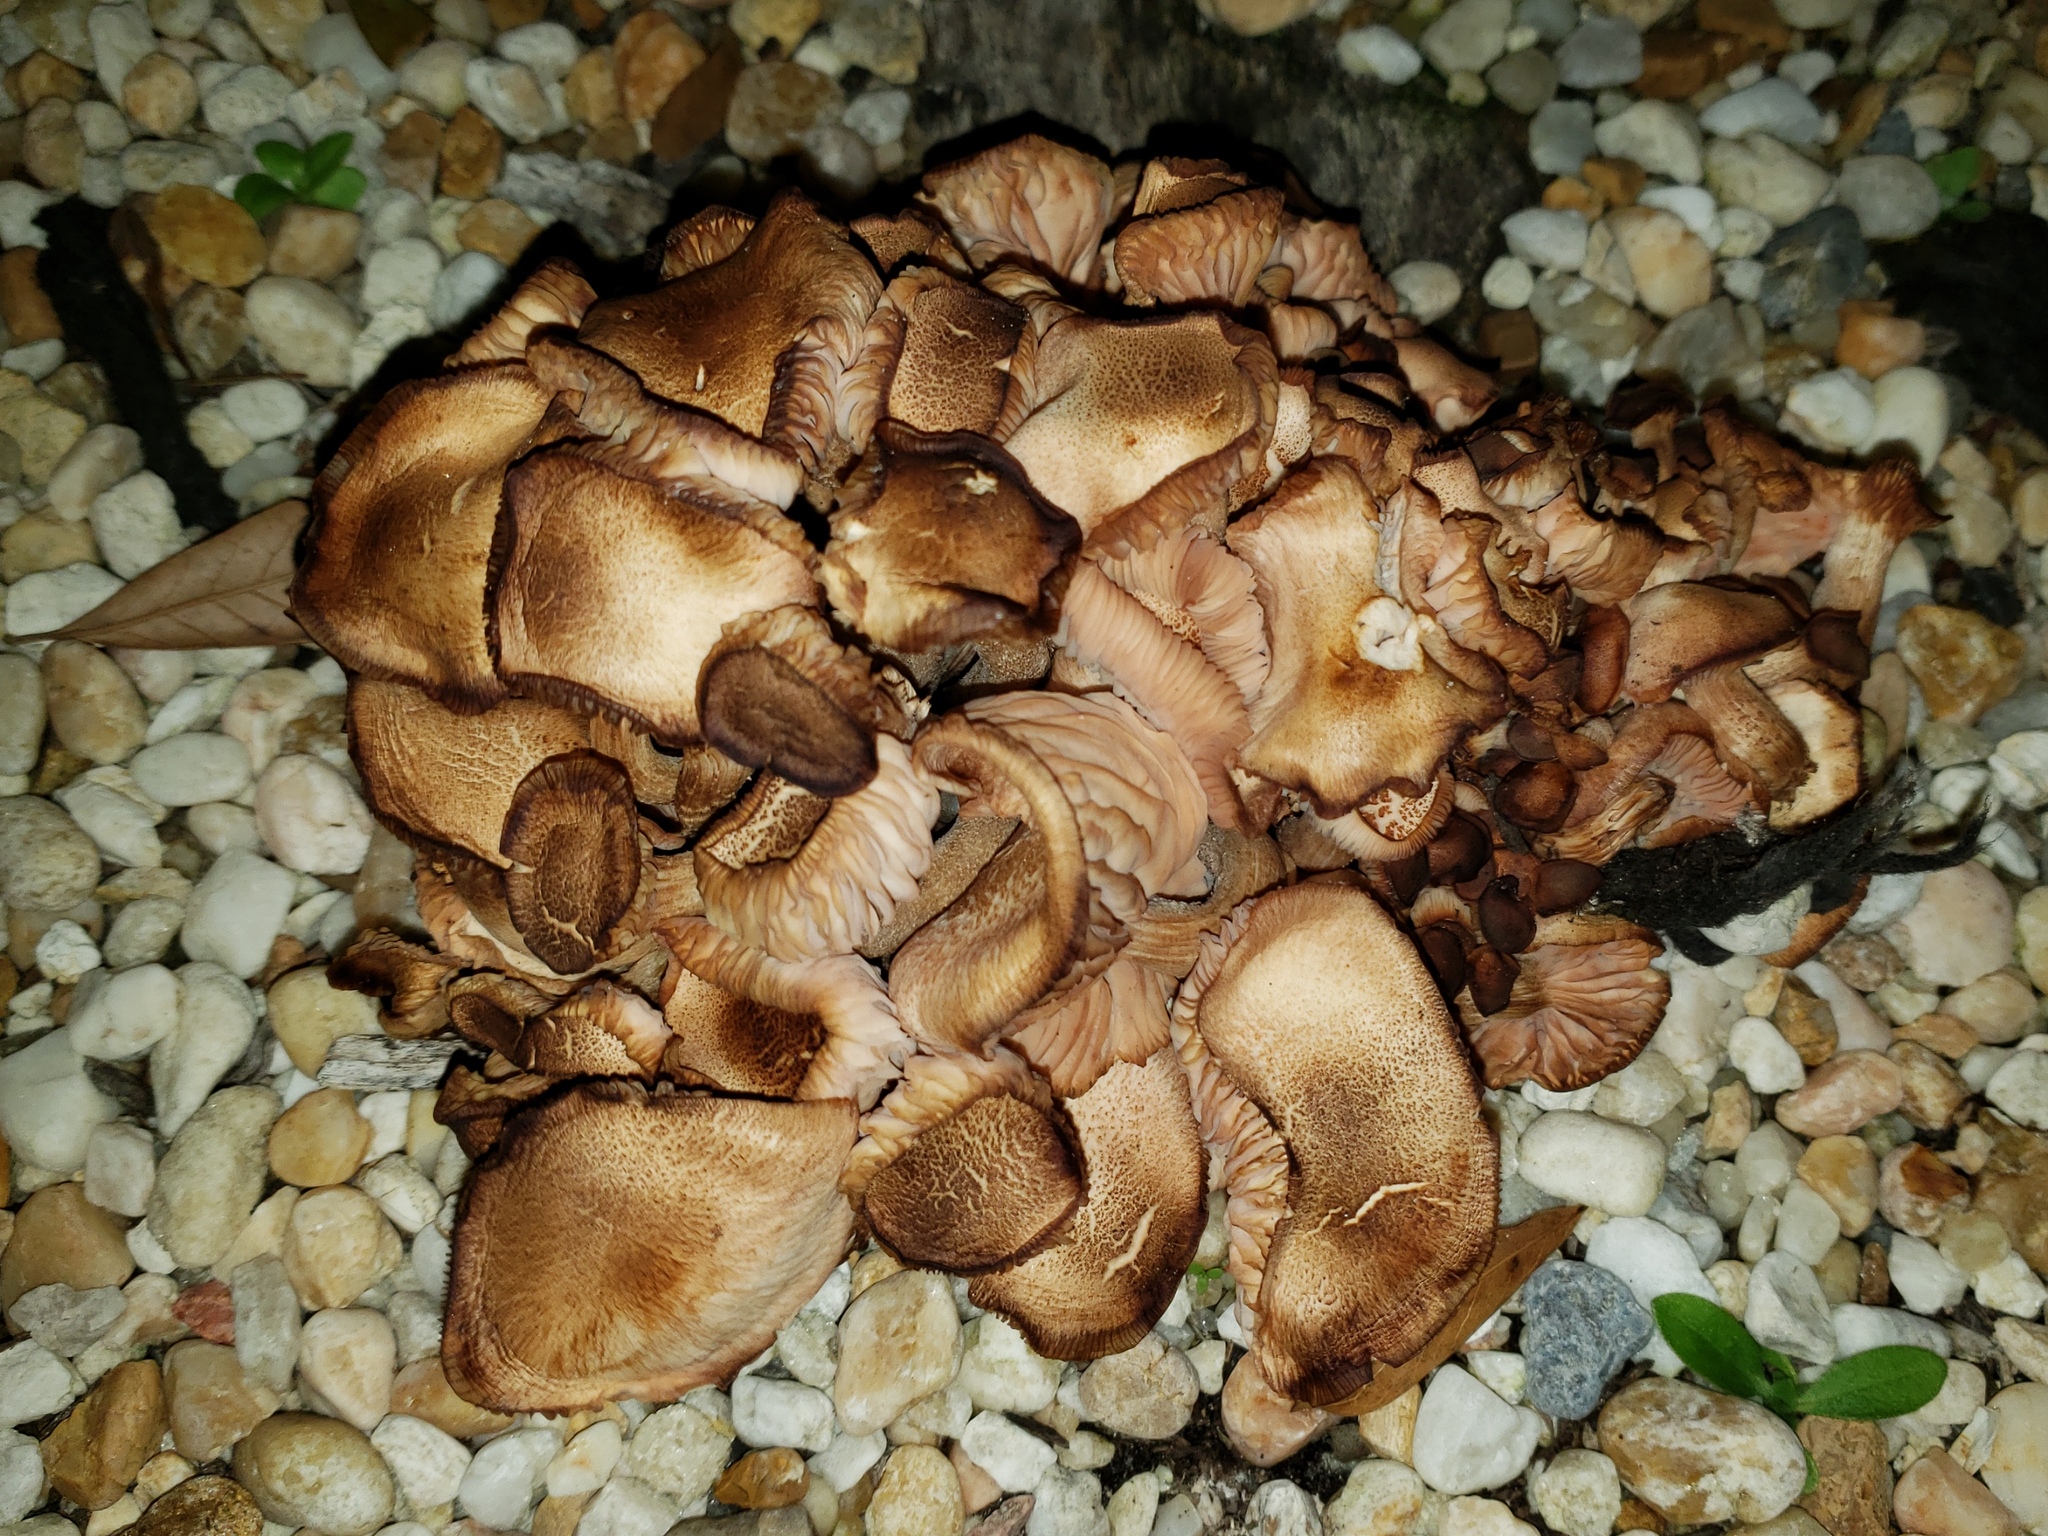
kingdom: Fungi
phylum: Basidiomycota
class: Agaricomycetes
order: Agaricales
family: Physalacriaceae
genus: Desarmillaria
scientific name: Desarmillaria caespitosa
